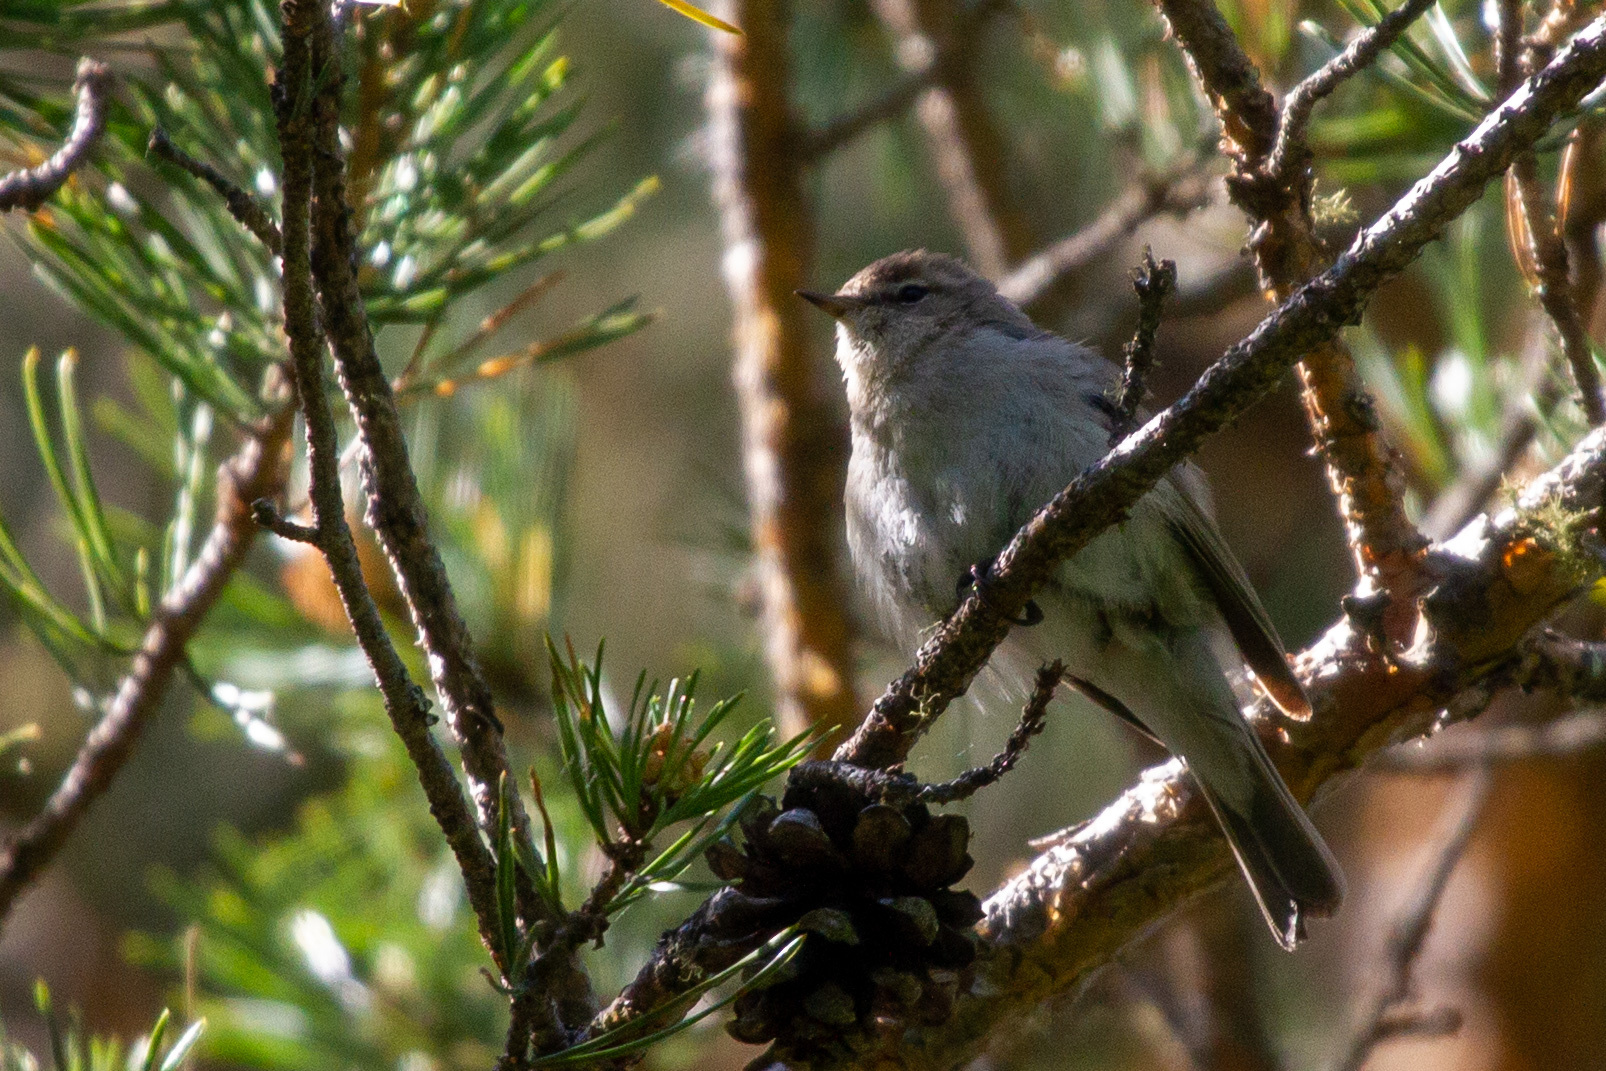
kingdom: Animalia
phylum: Chordata
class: Aves
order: Passeriformes
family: Phylloscopidae
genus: Phylloscopus
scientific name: Phylloscopus collybita
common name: Common chiffchaff
